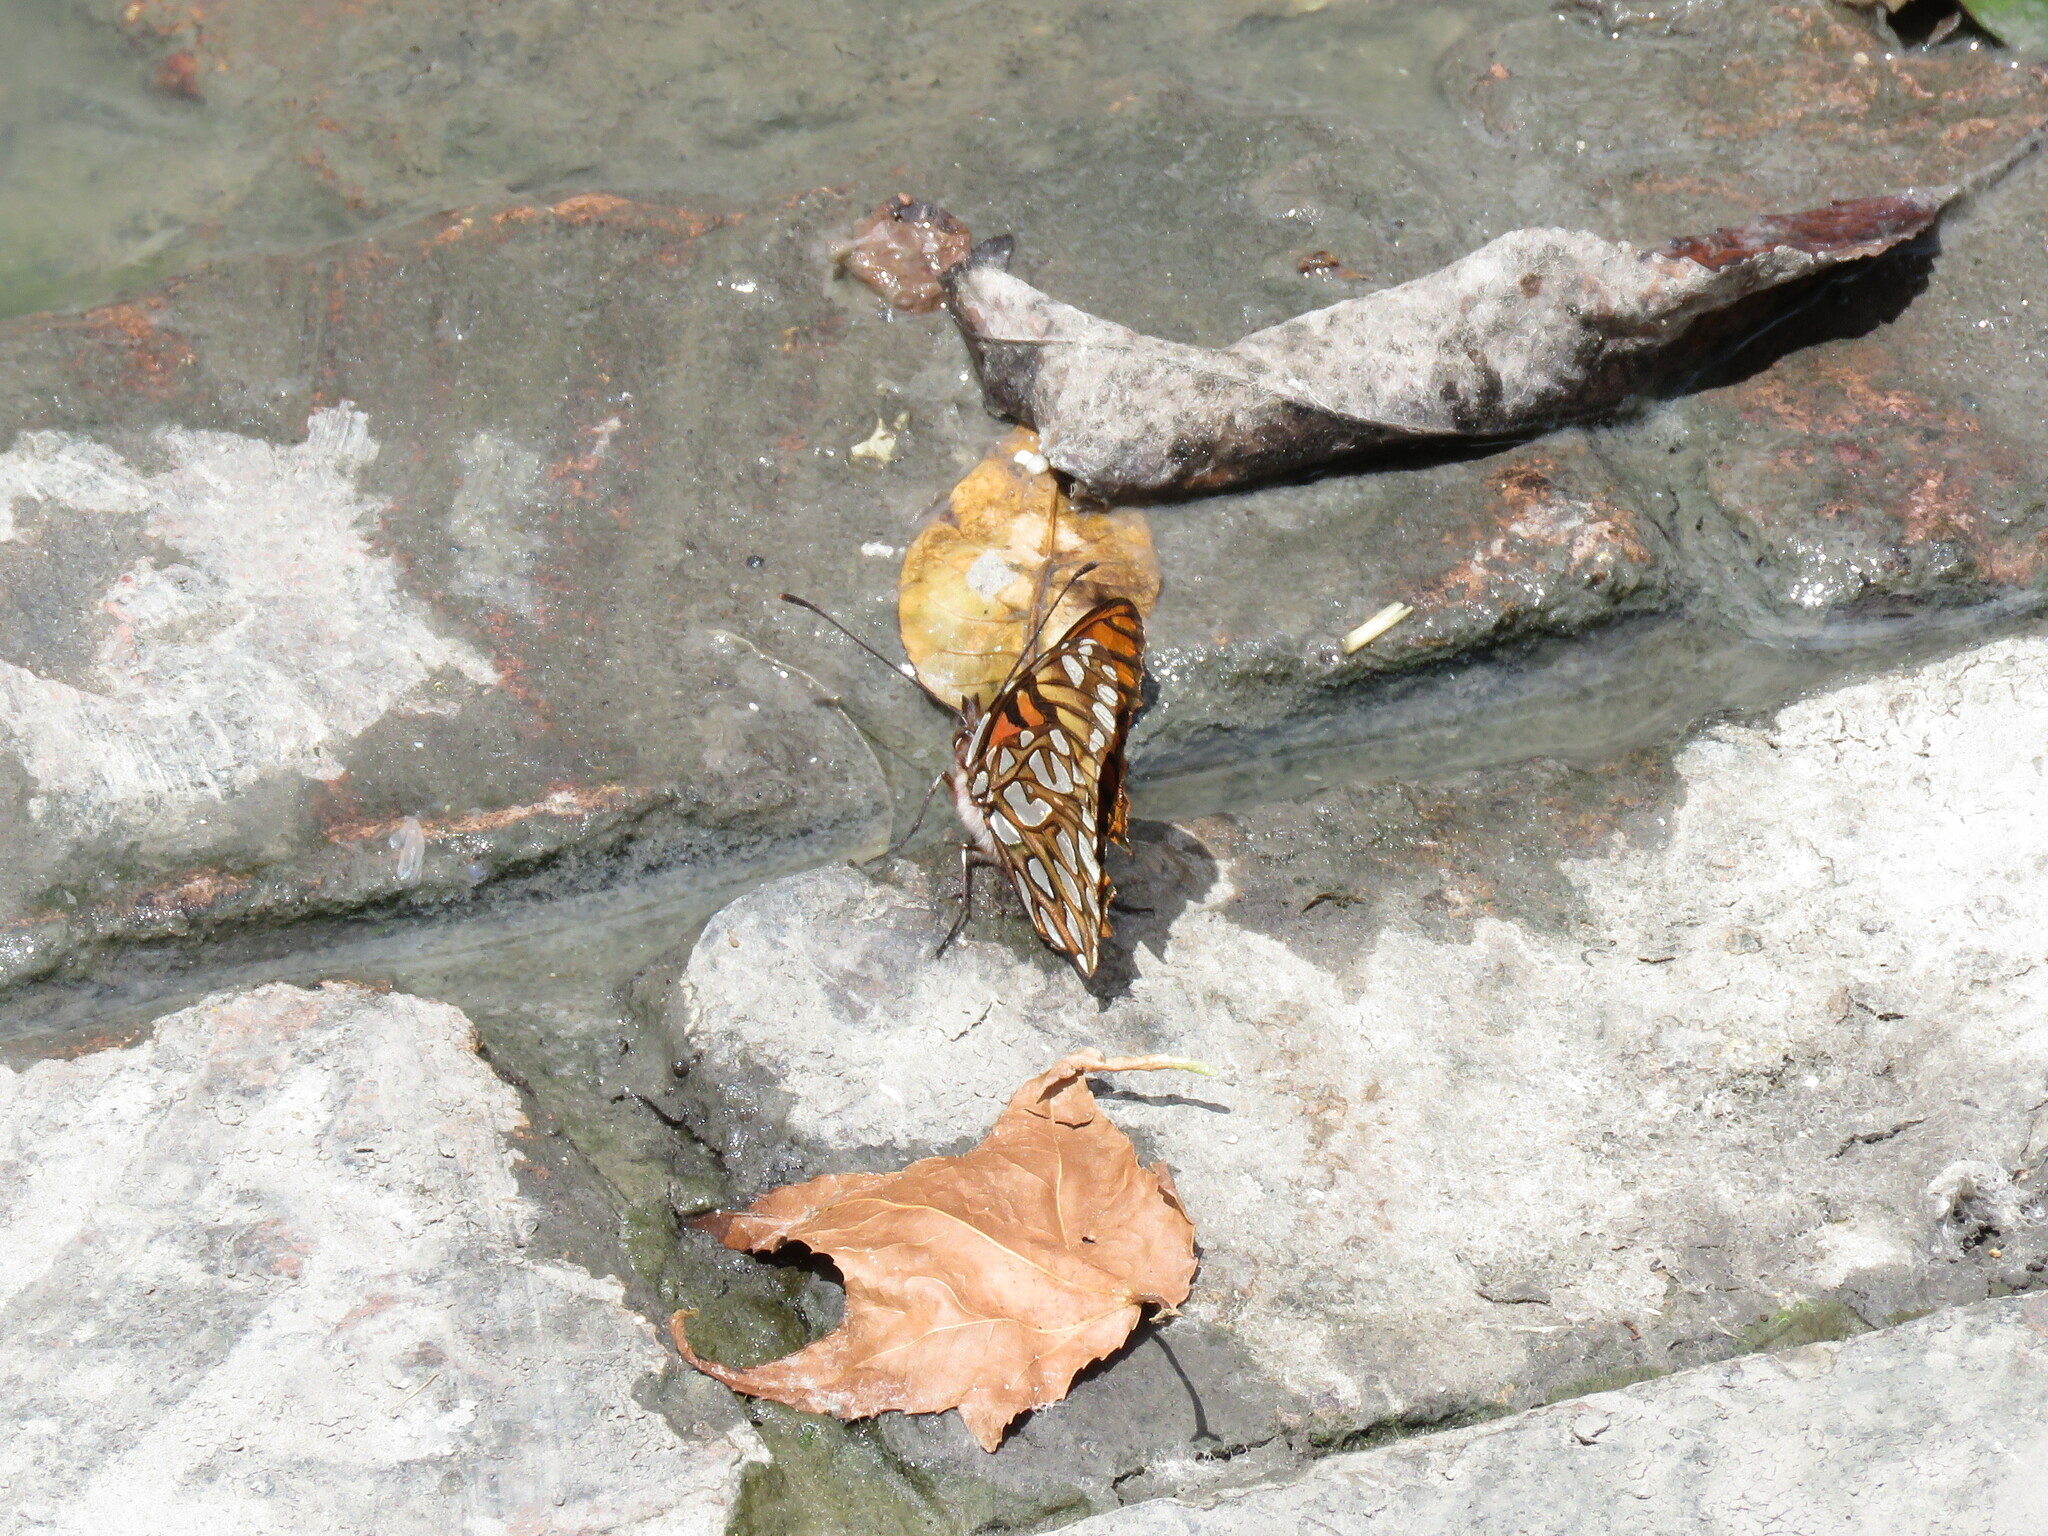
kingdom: Animalia
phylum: Arthropoda
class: Insecta
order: Lepidoptera
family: Nymphalidae
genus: Dione
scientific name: Dione glycera
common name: Andean silverspot
